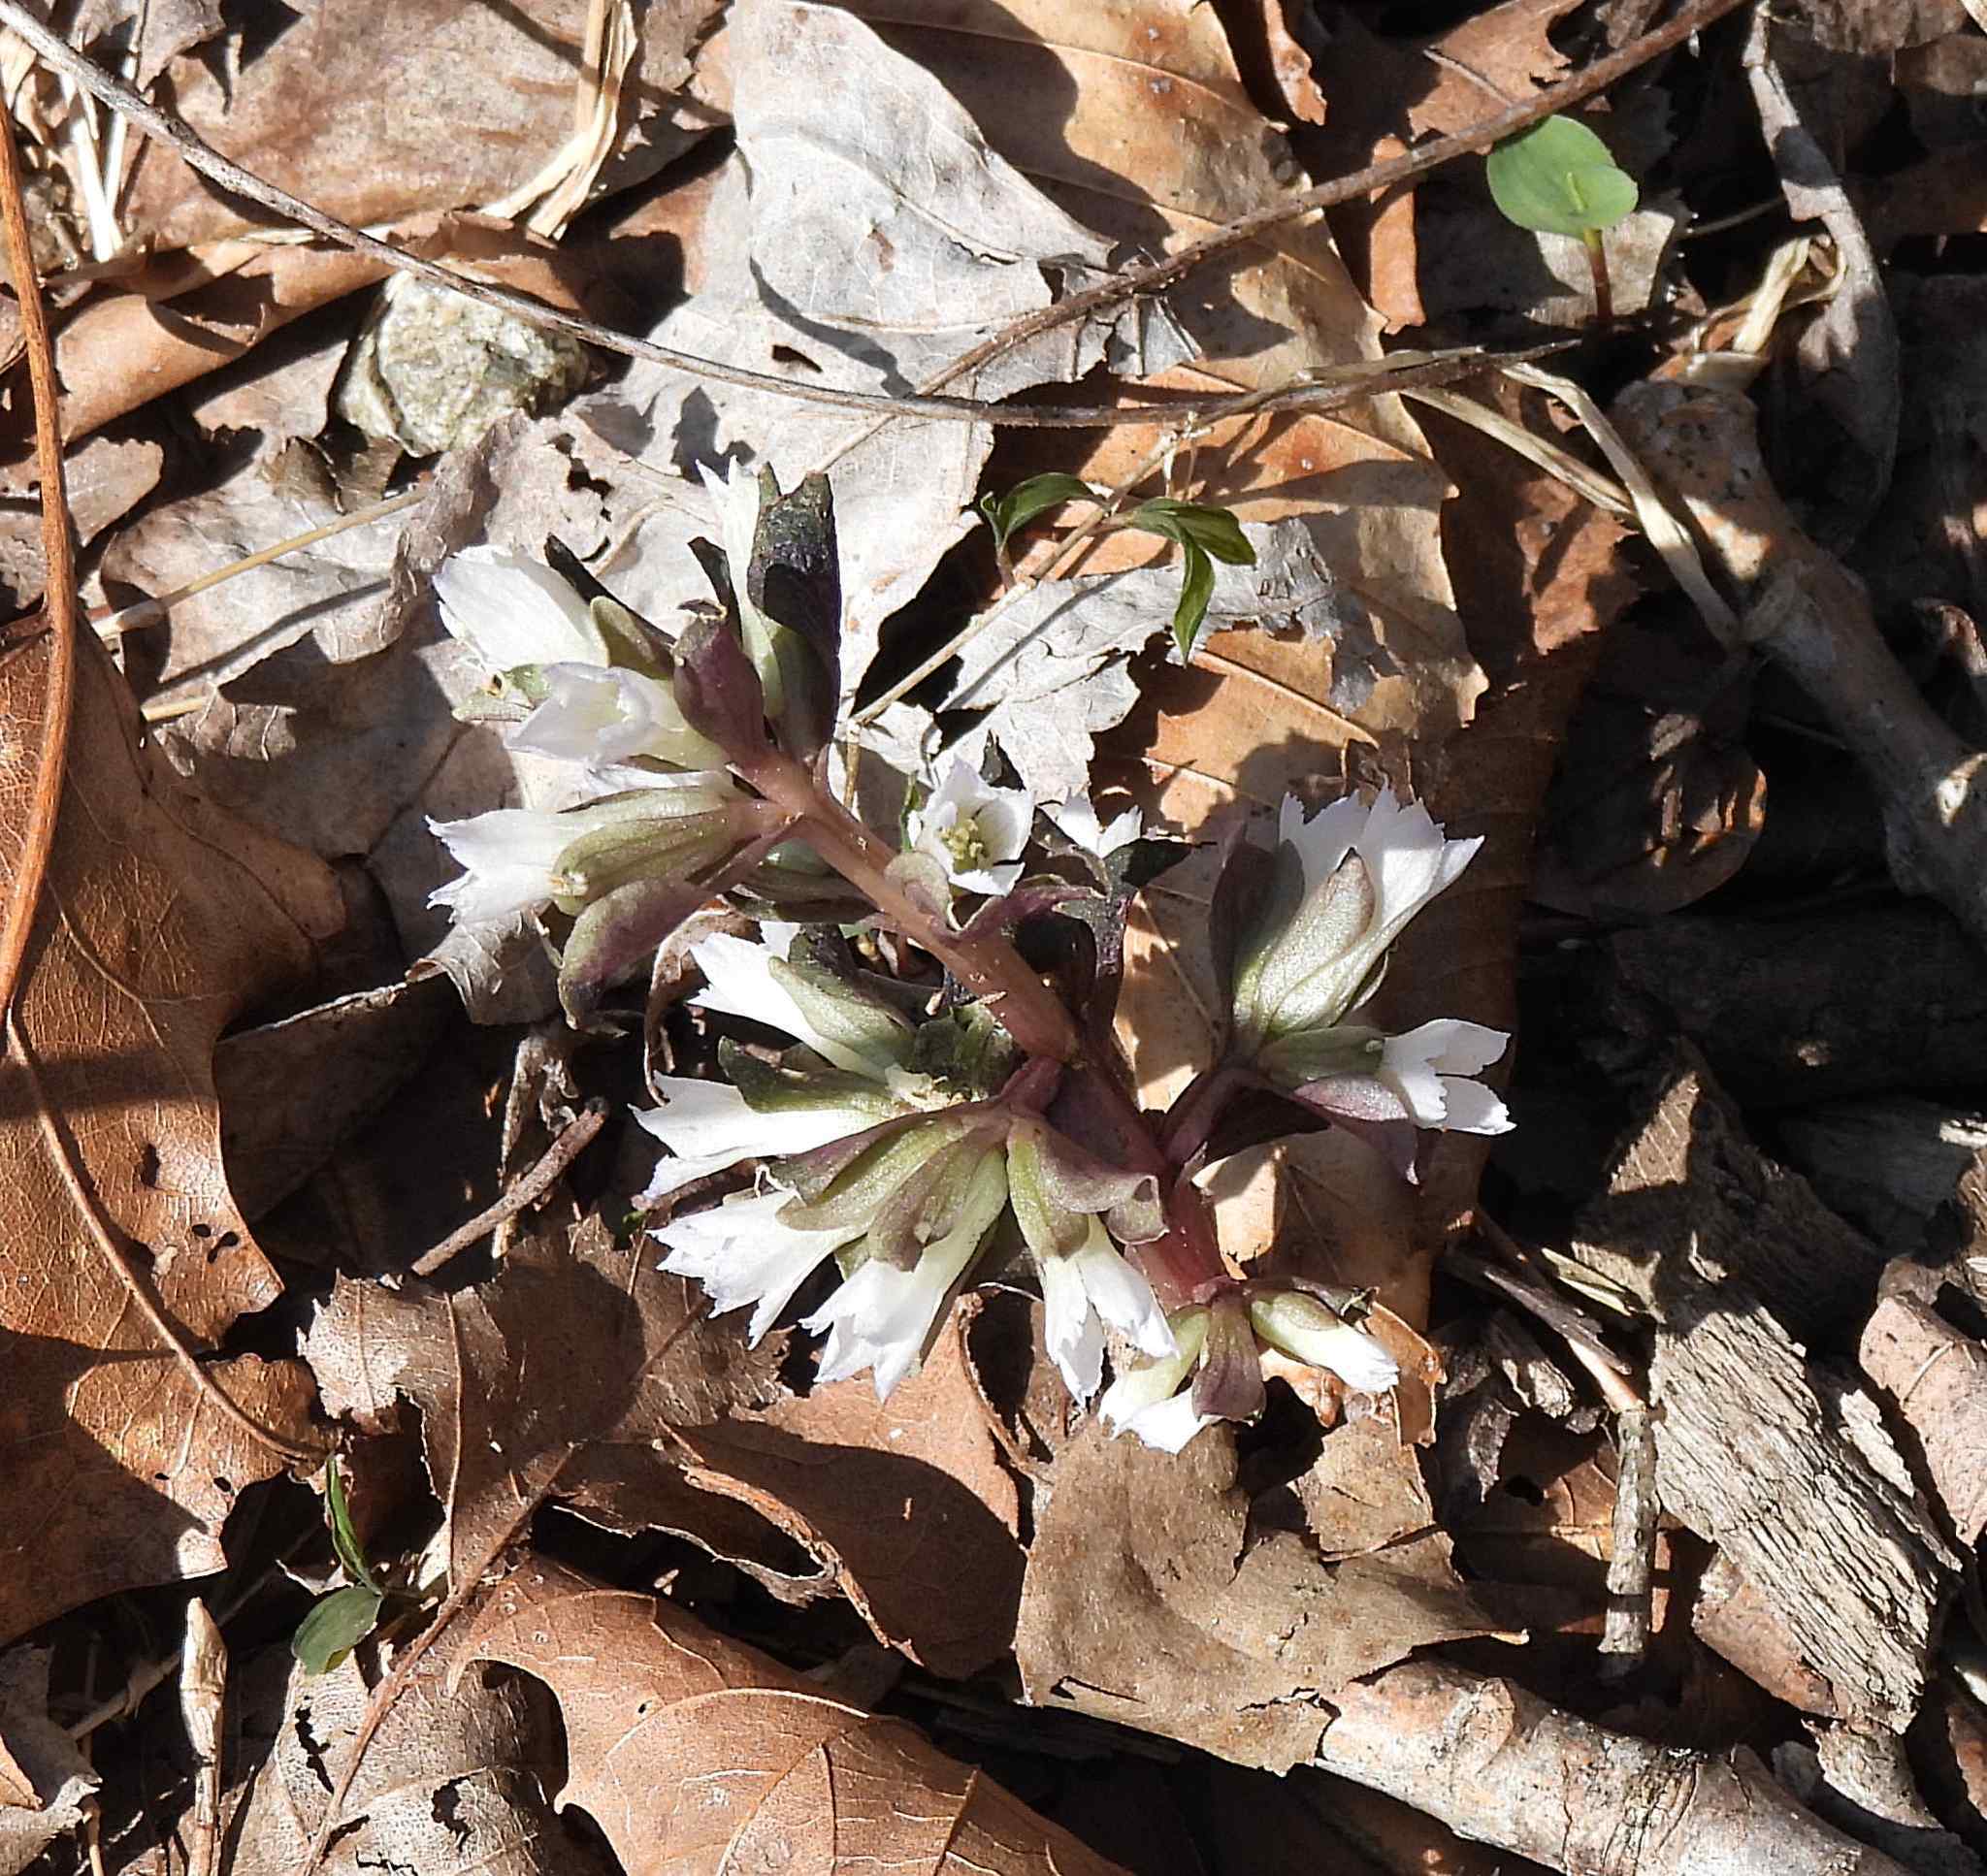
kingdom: Plantae
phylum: Tracheophyta
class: Magnoliopsida
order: Gentianales
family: Gentianaceae
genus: Obolaria
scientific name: Obolaria virginica
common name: Pennywort
